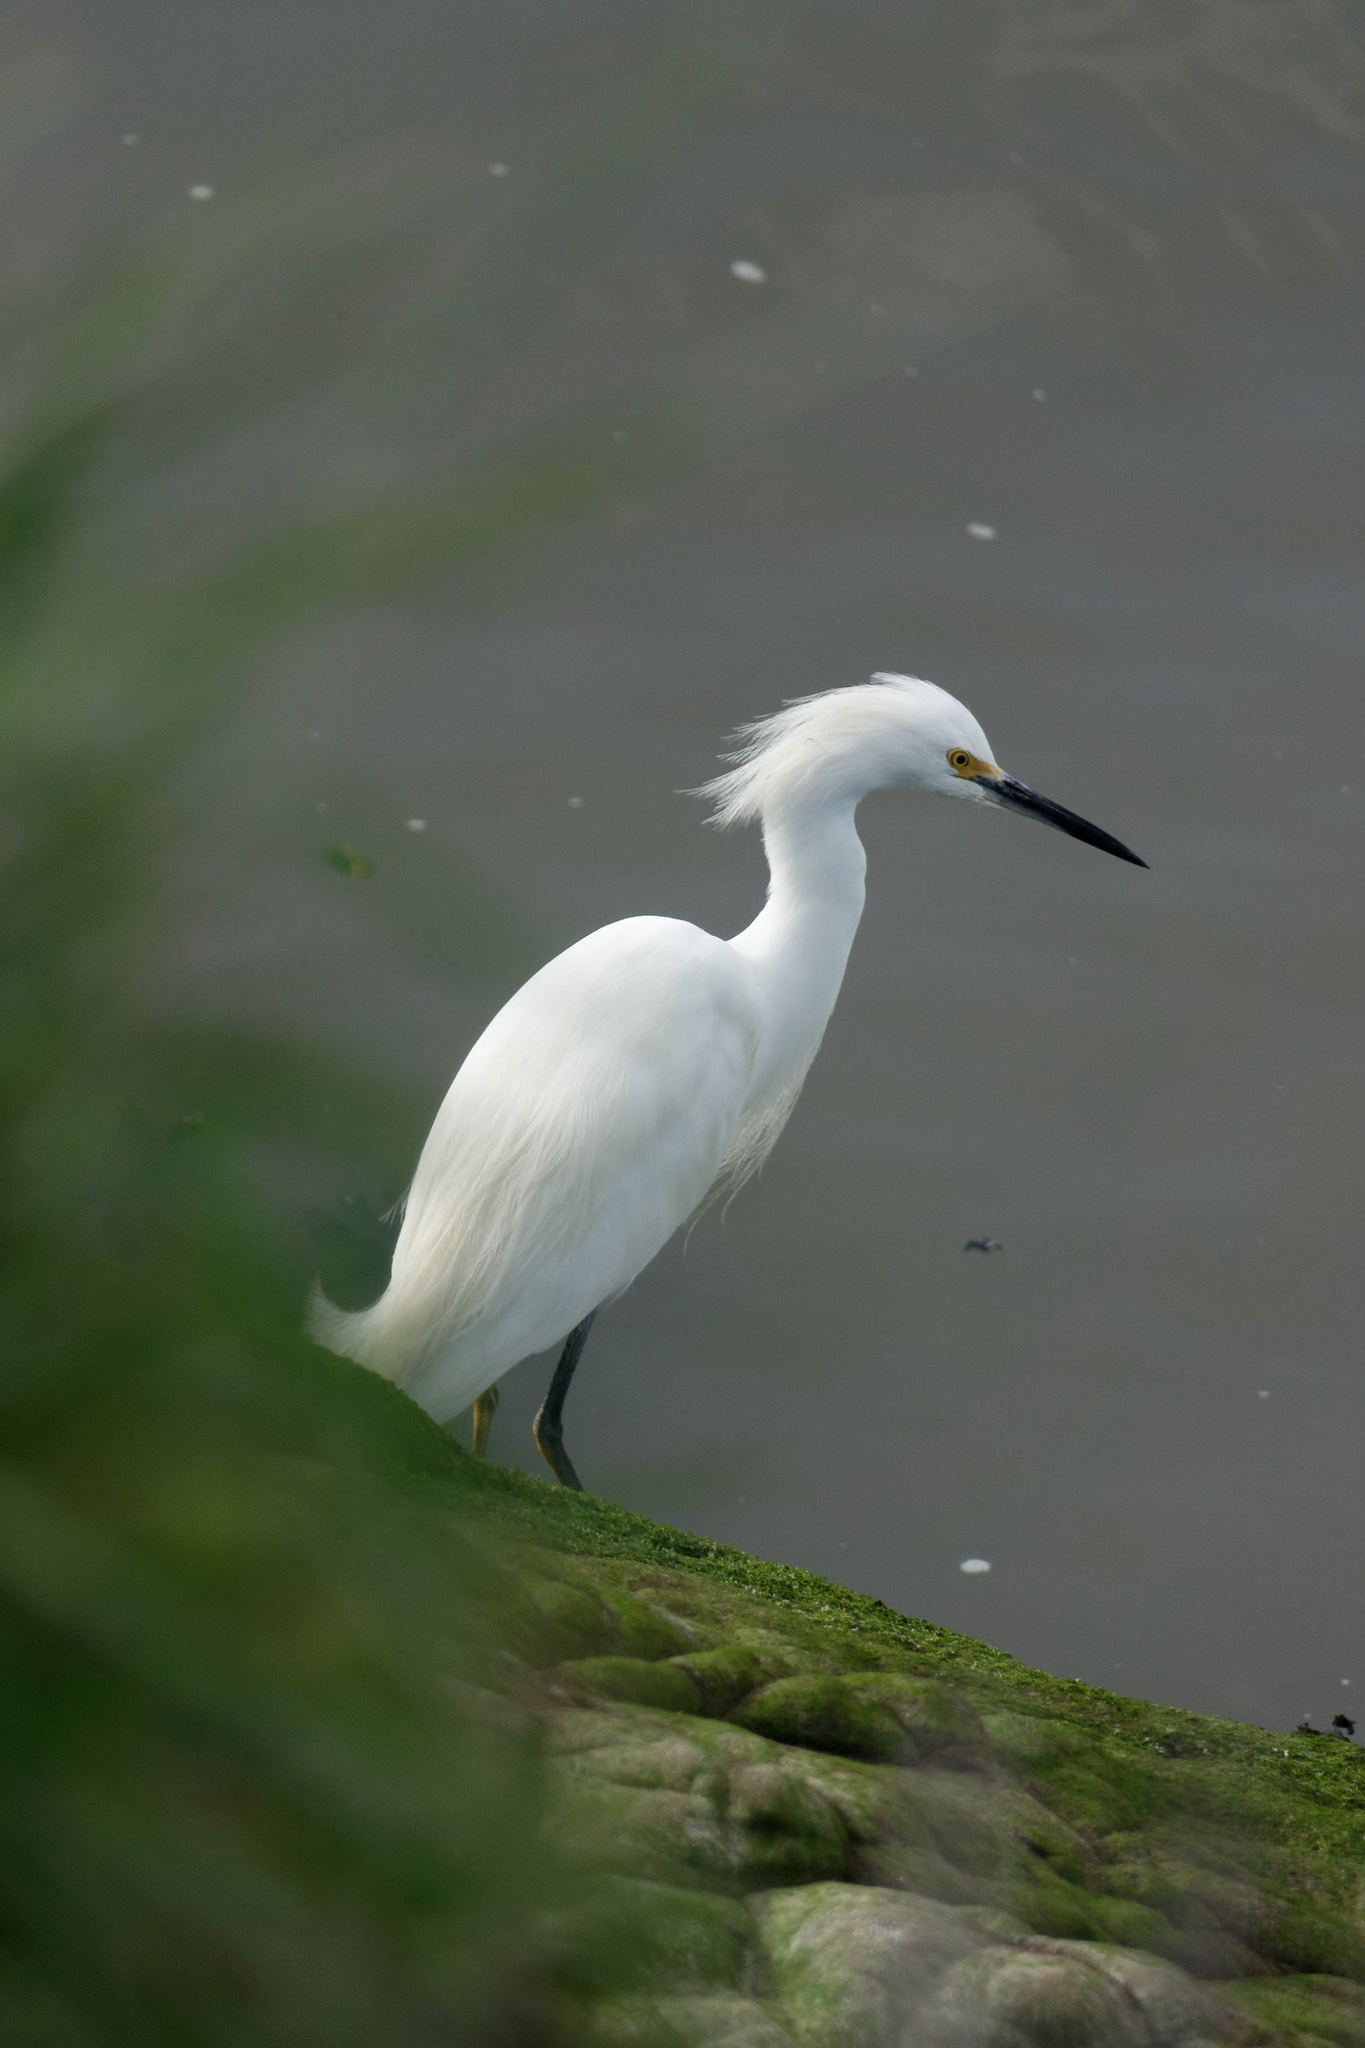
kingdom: Animalia
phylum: Chordata
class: Aves
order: Pelecaniformes
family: Ardeidae
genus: Egretta
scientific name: Egretta thula
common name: Snowy egret
